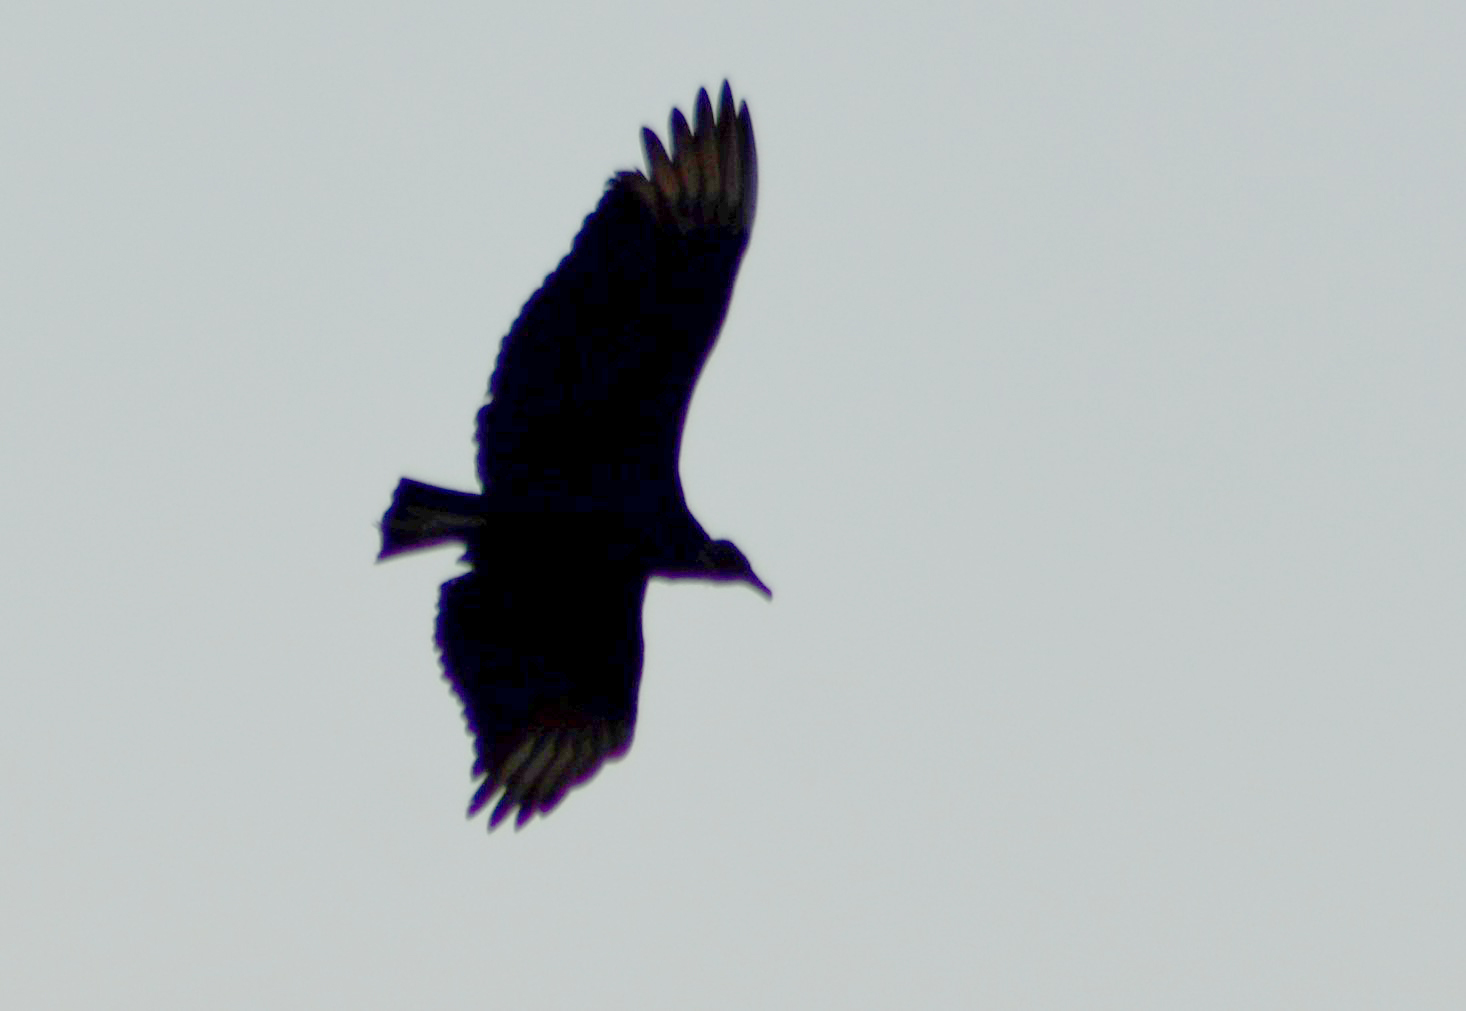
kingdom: Animalia
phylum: Chordata
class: Aves
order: Accipitriformes
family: Cathartidae
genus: Coragyps
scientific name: Coragyps atratus
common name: Black vulture
